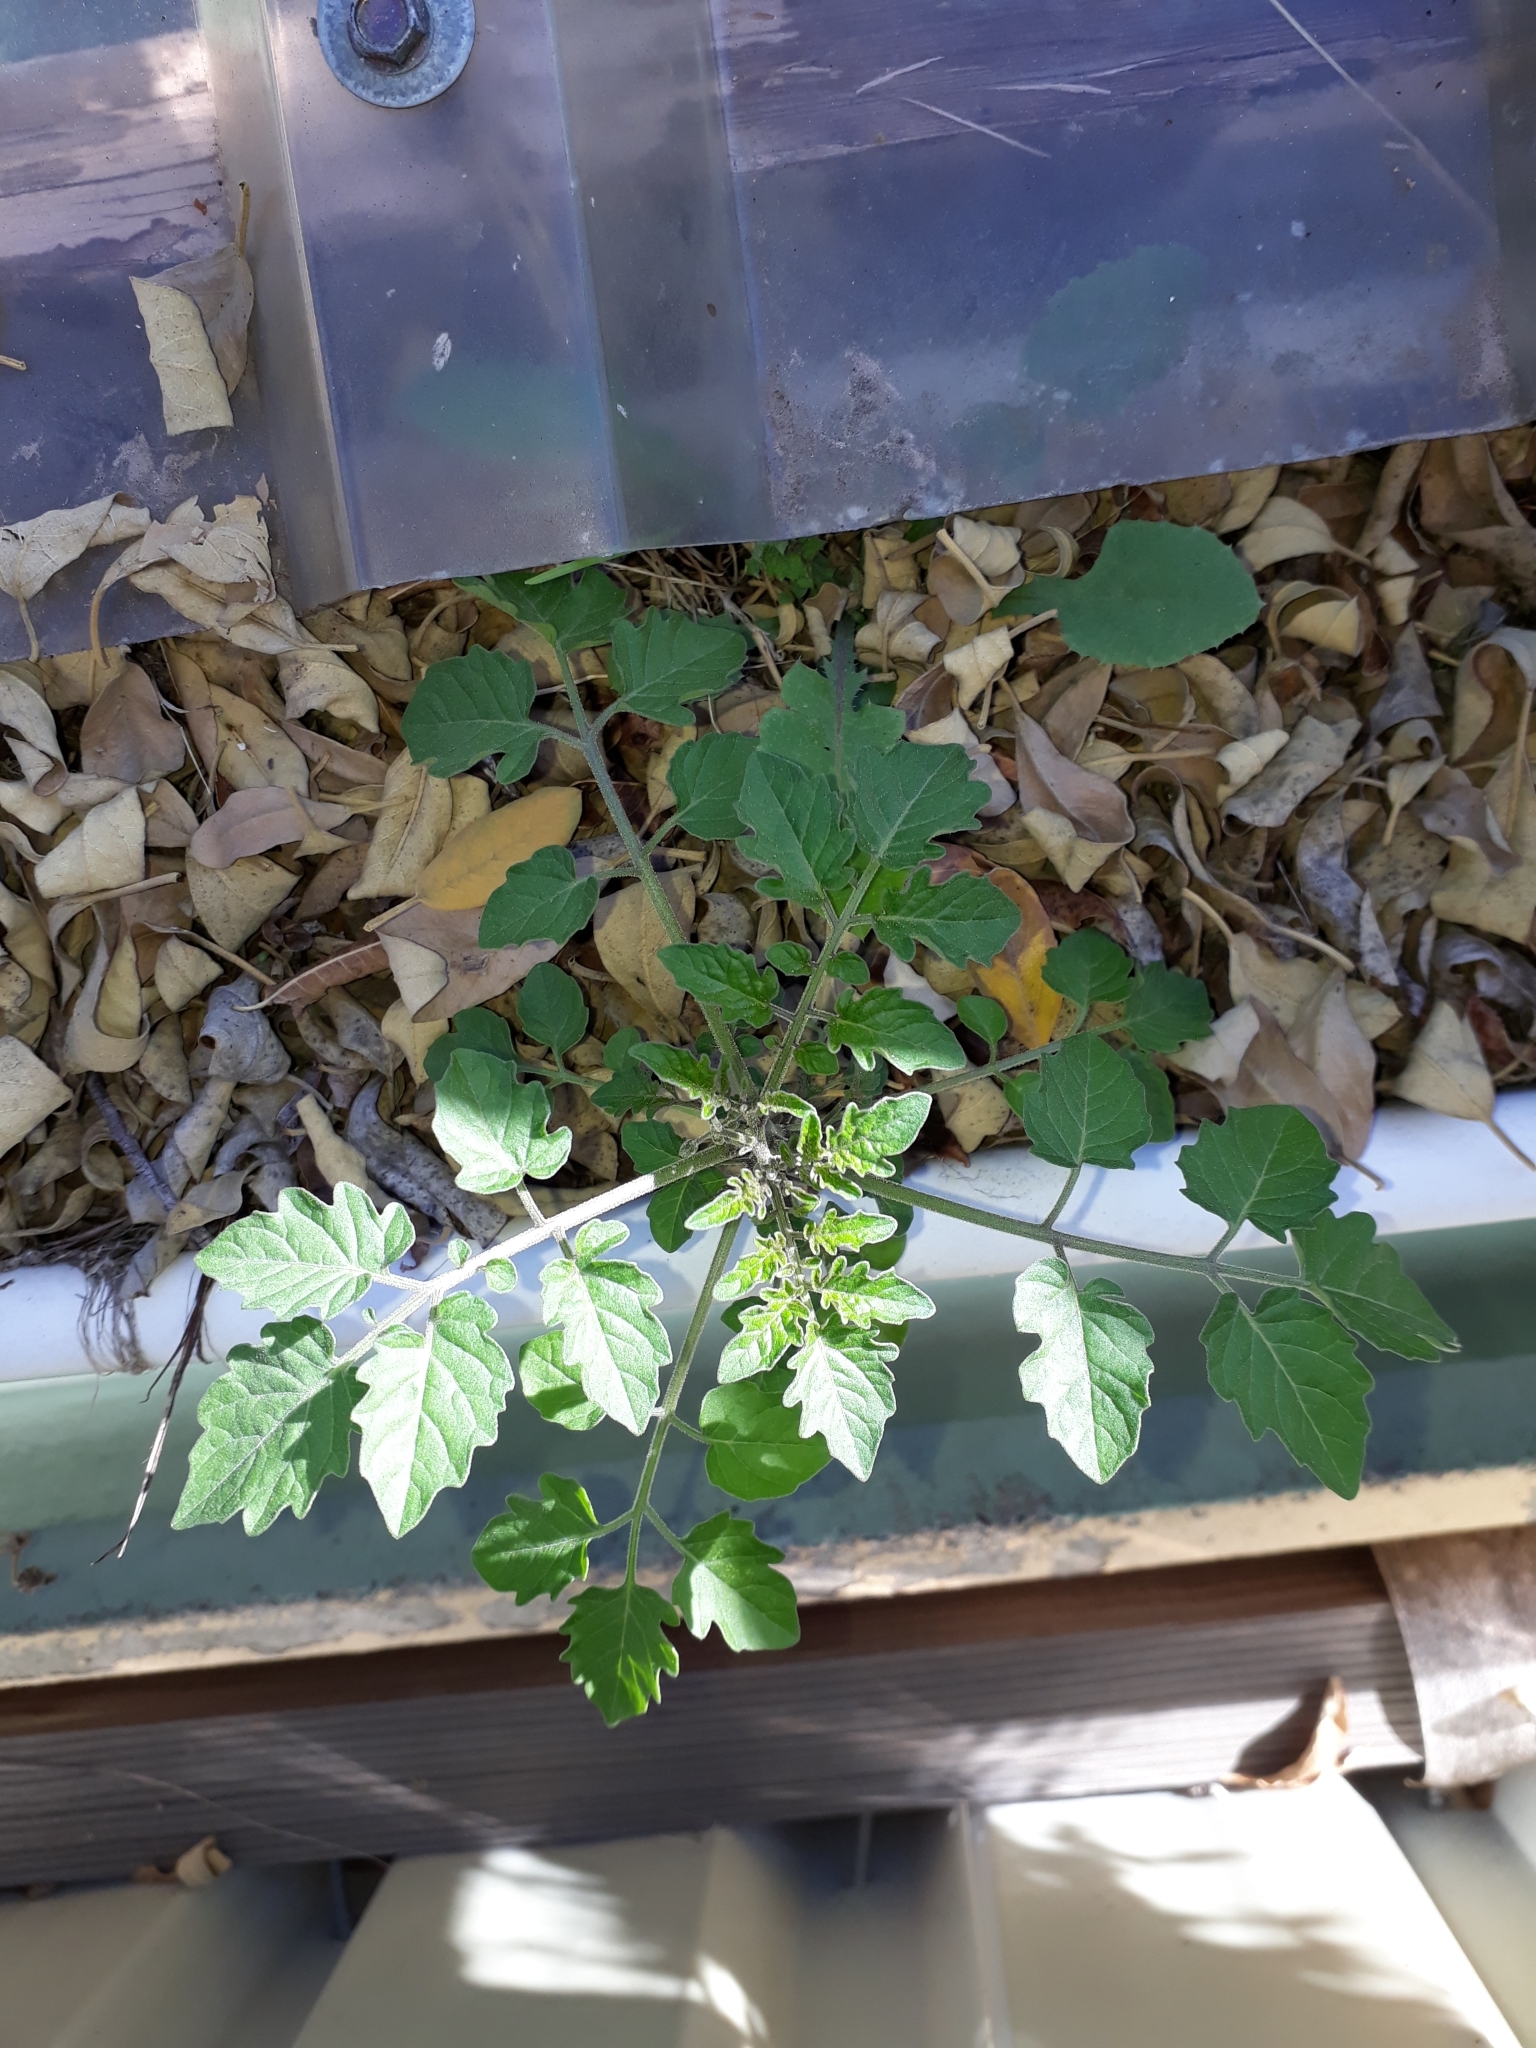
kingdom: Plantae
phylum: Tracheophyta
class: Magnoliopsida
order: Solanales
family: Solanaceae
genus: Solanum
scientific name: Solanum lycopersicum
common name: Garden tomato
